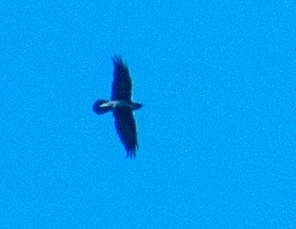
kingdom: Animalia
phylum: Chordata
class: Aves
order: Passeriformes
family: Corvidae
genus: Corvus
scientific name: Corvus corax
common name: Common raven
